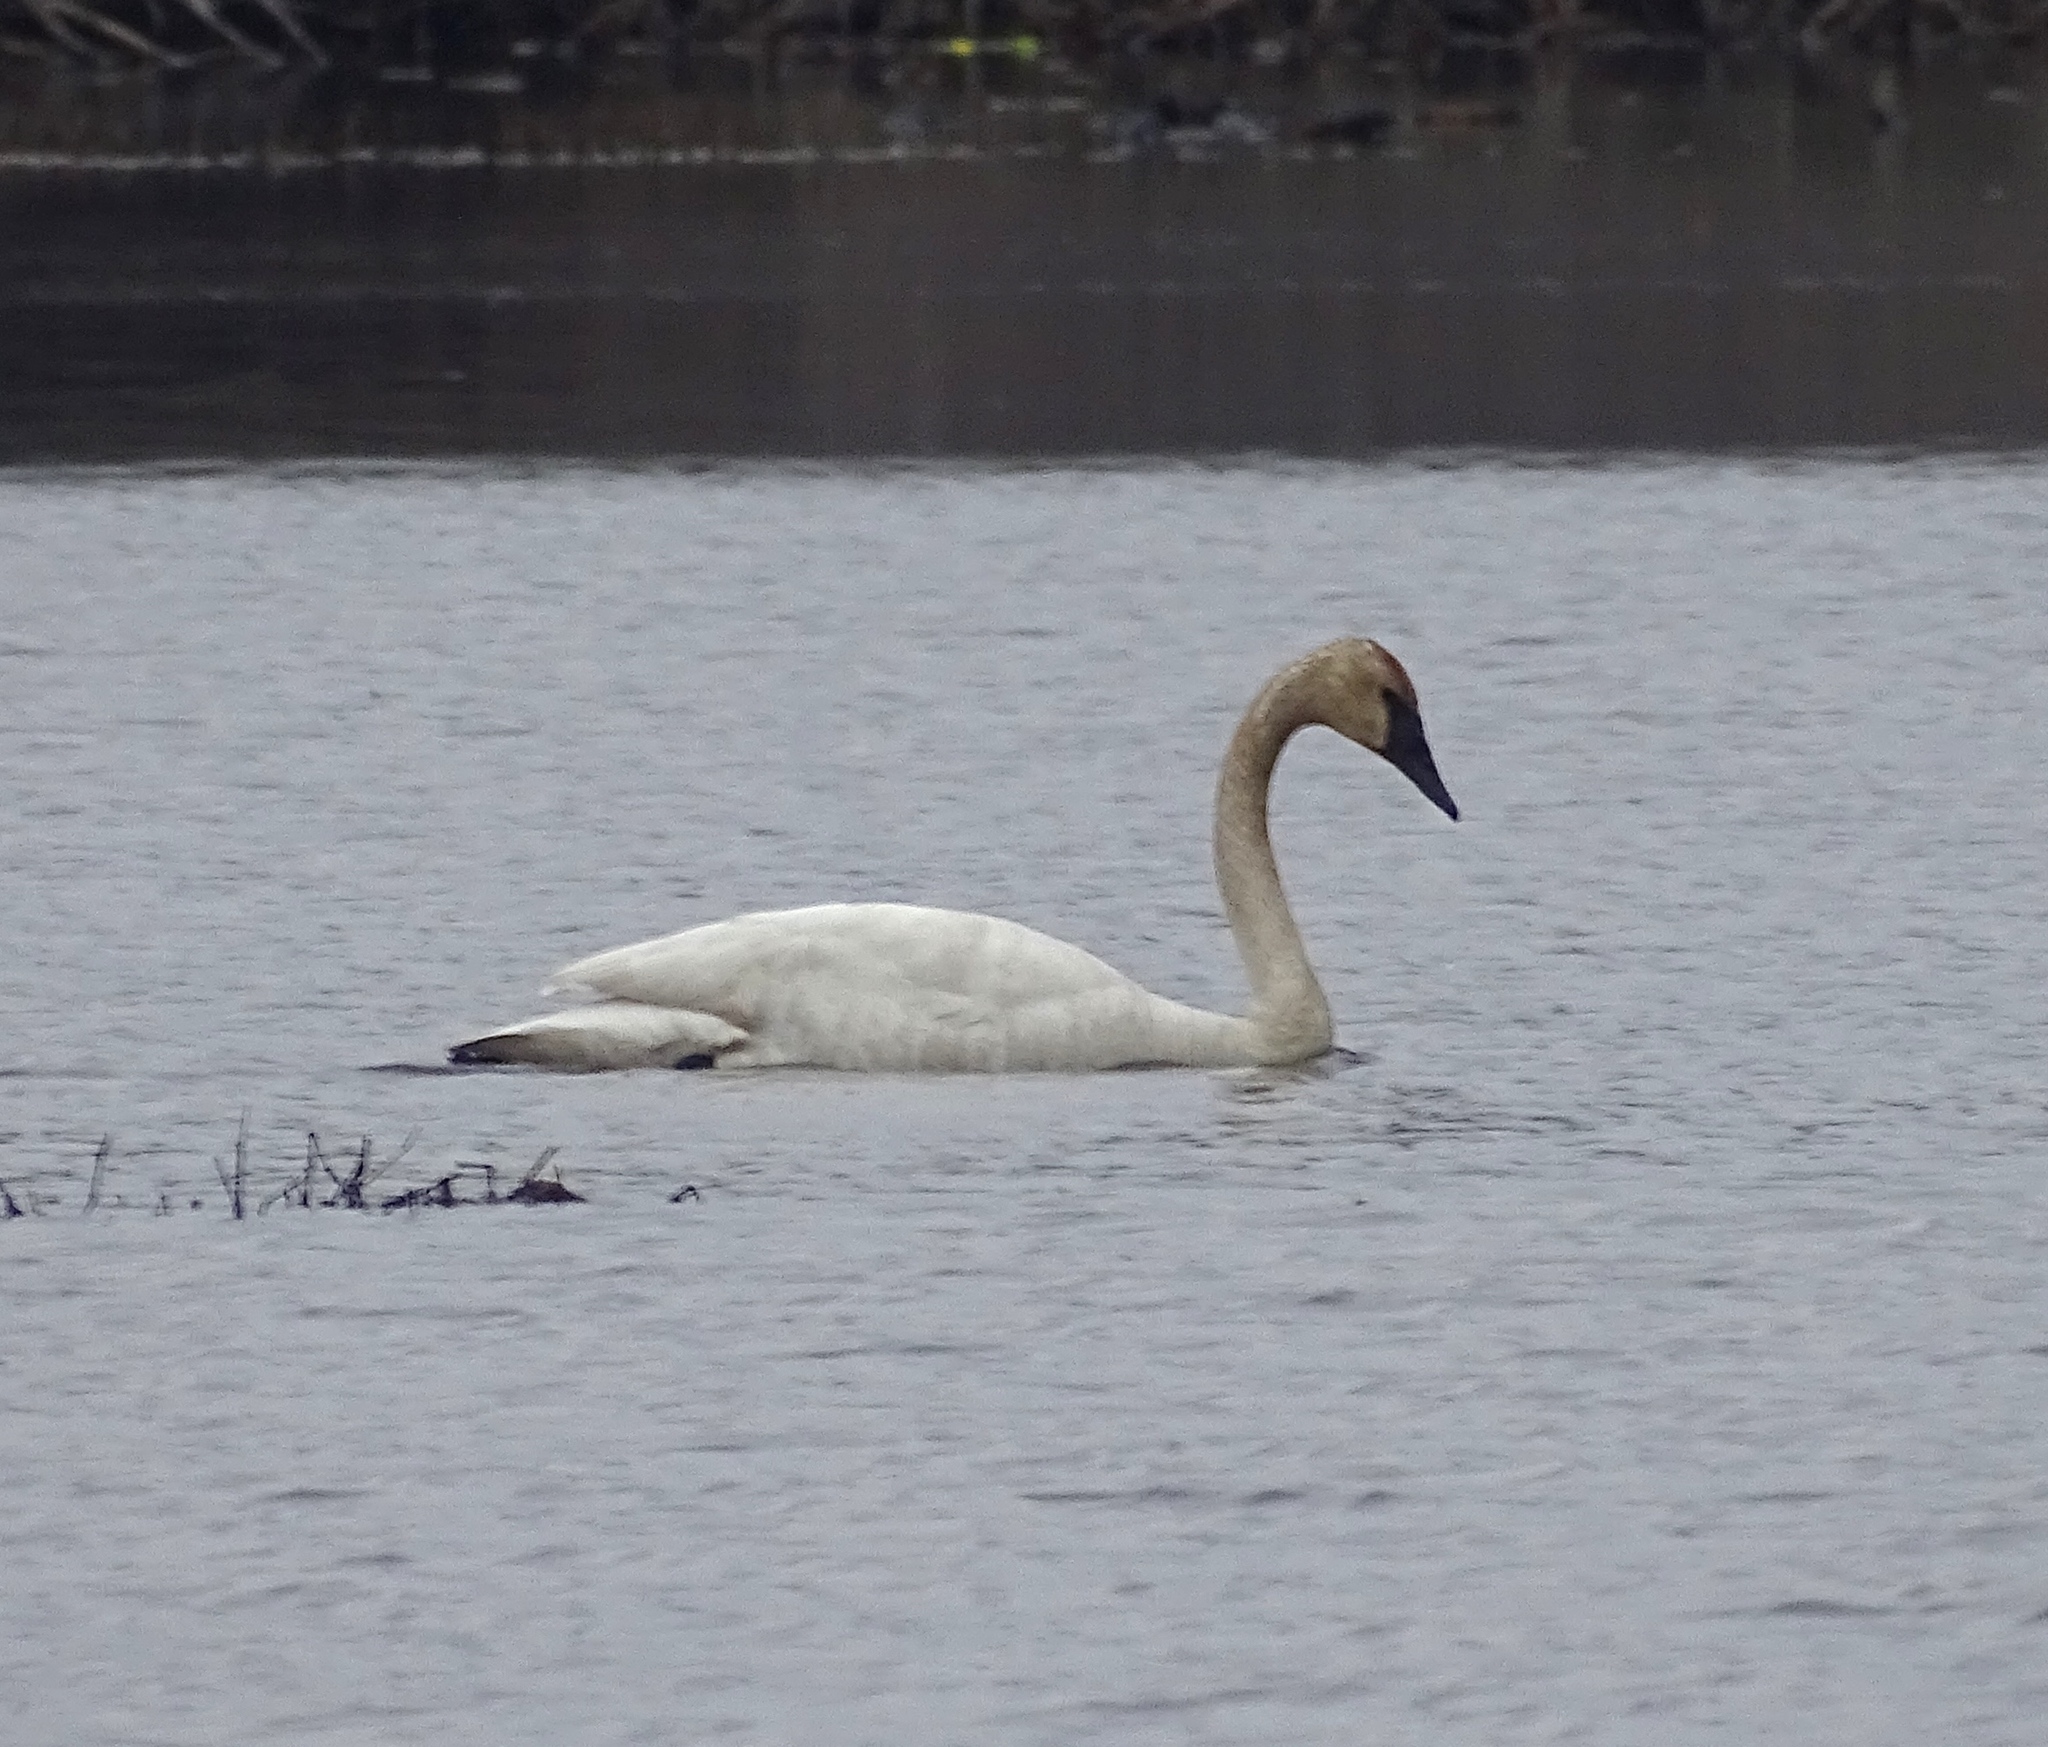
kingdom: Animalia
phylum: Chordata
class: Aves
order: Anseriformes
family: Anatidae
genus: Cygnus
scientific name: Cygnus buccinator
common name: Trumpeter swan
